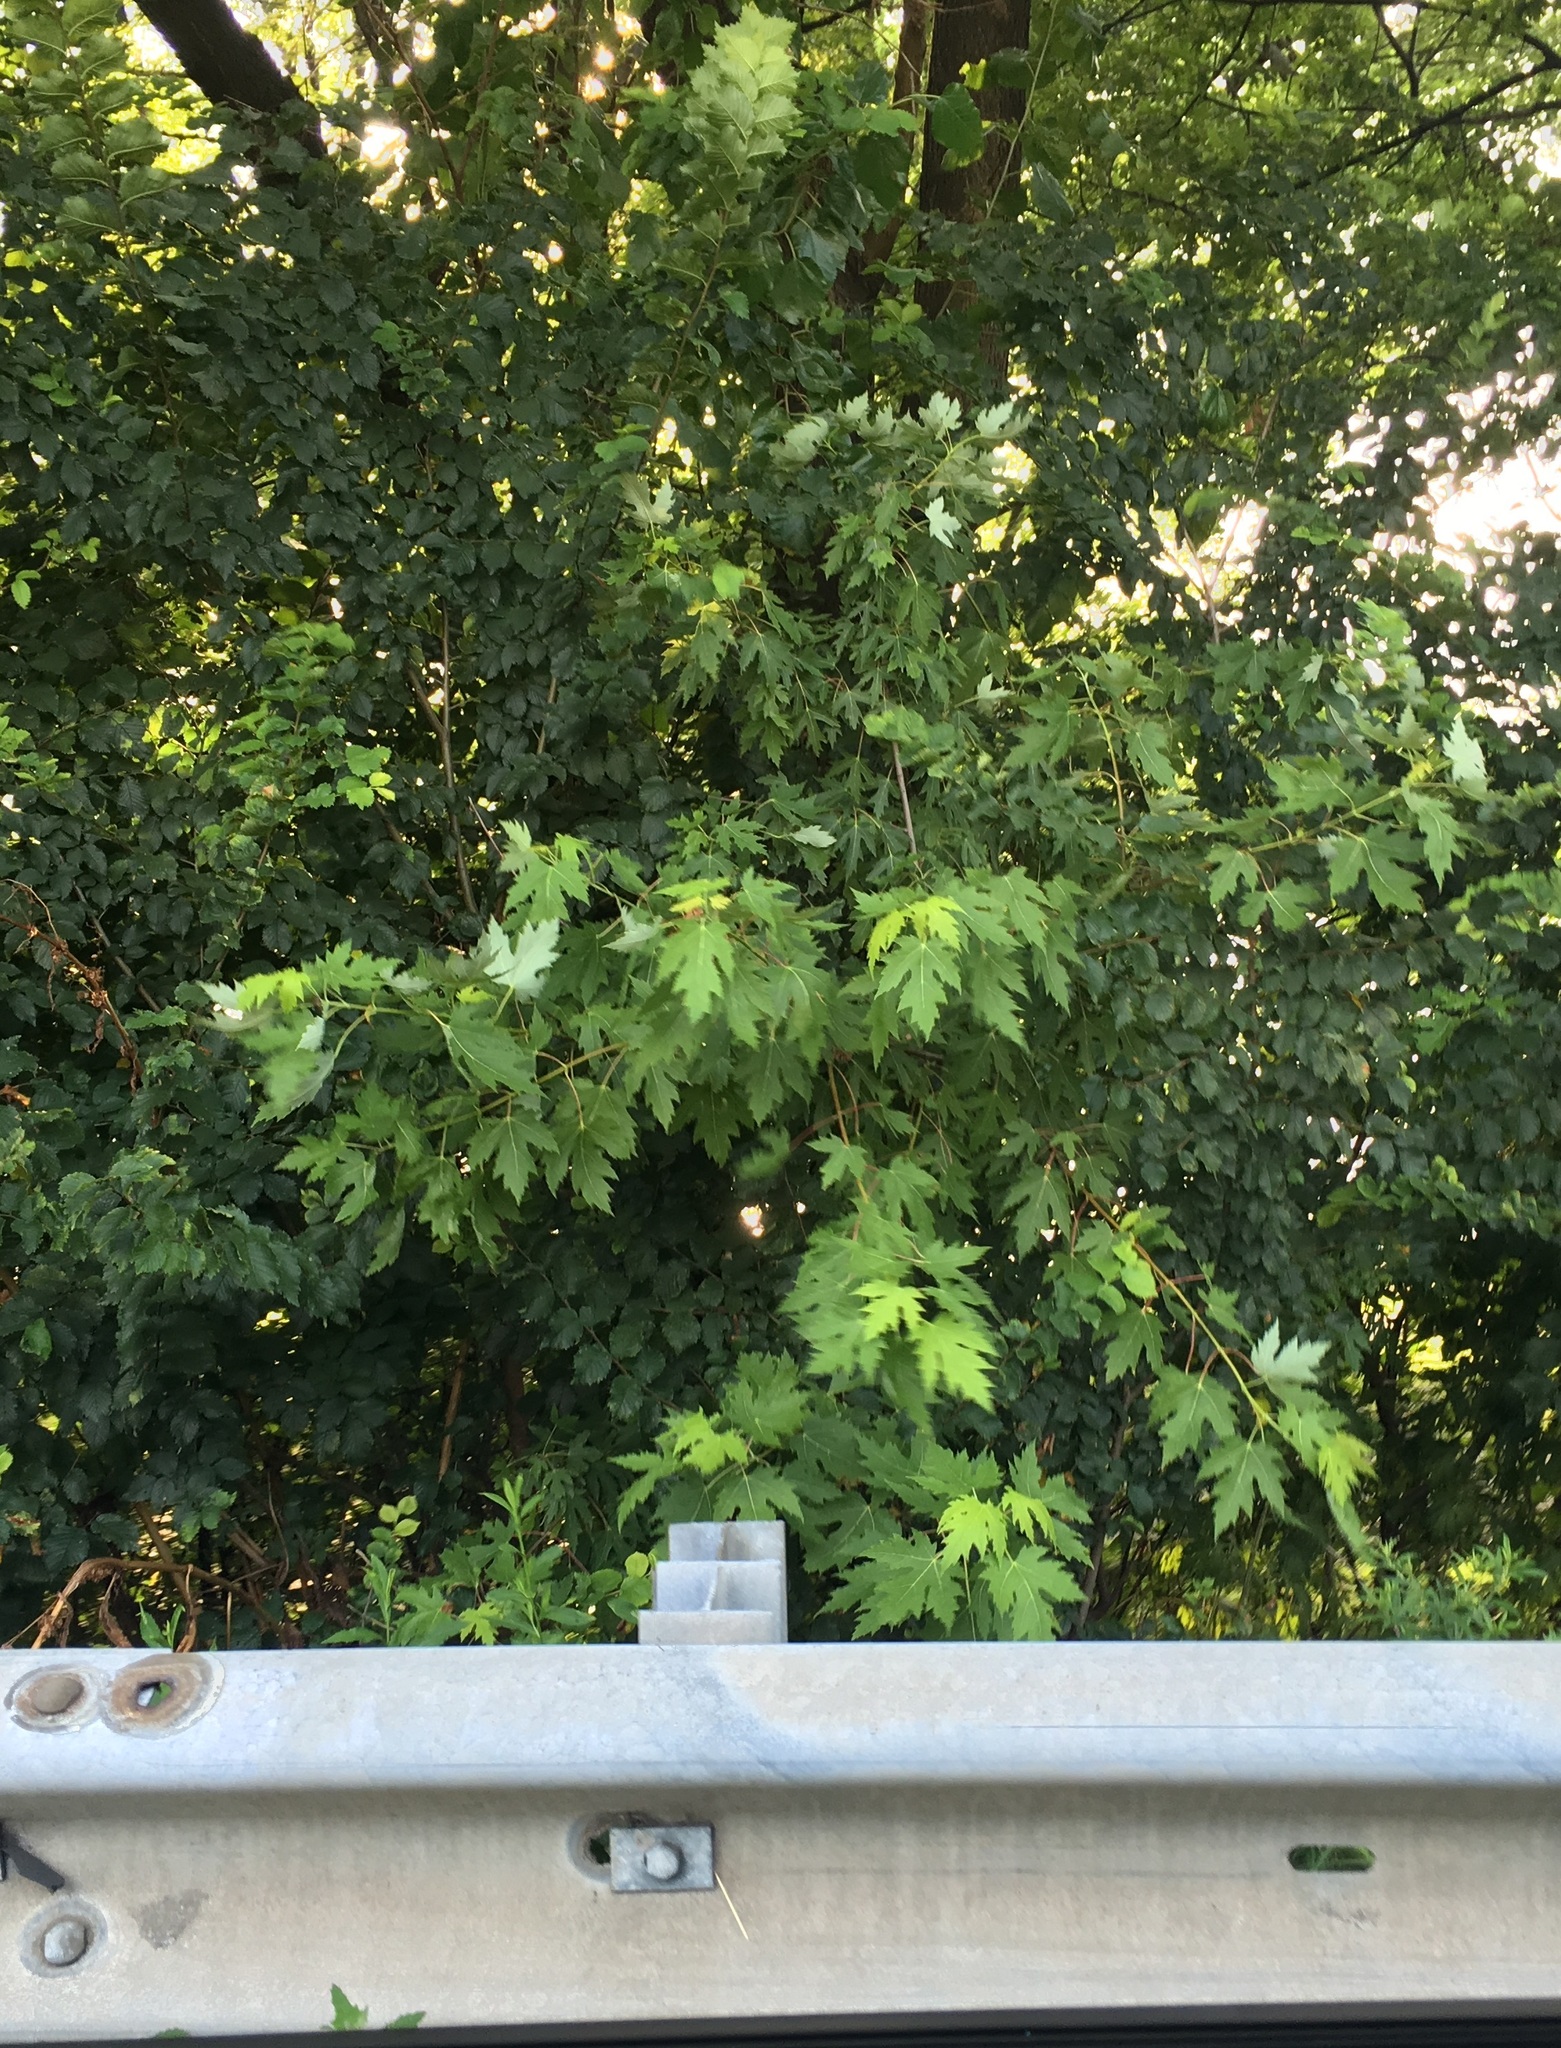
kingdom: Plantae
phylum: Tracheophyta
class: Magnoliopsida
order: Sapindales
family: Sapindaceae
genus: Acer
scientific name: Acer saccharinum
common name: Silver maple
